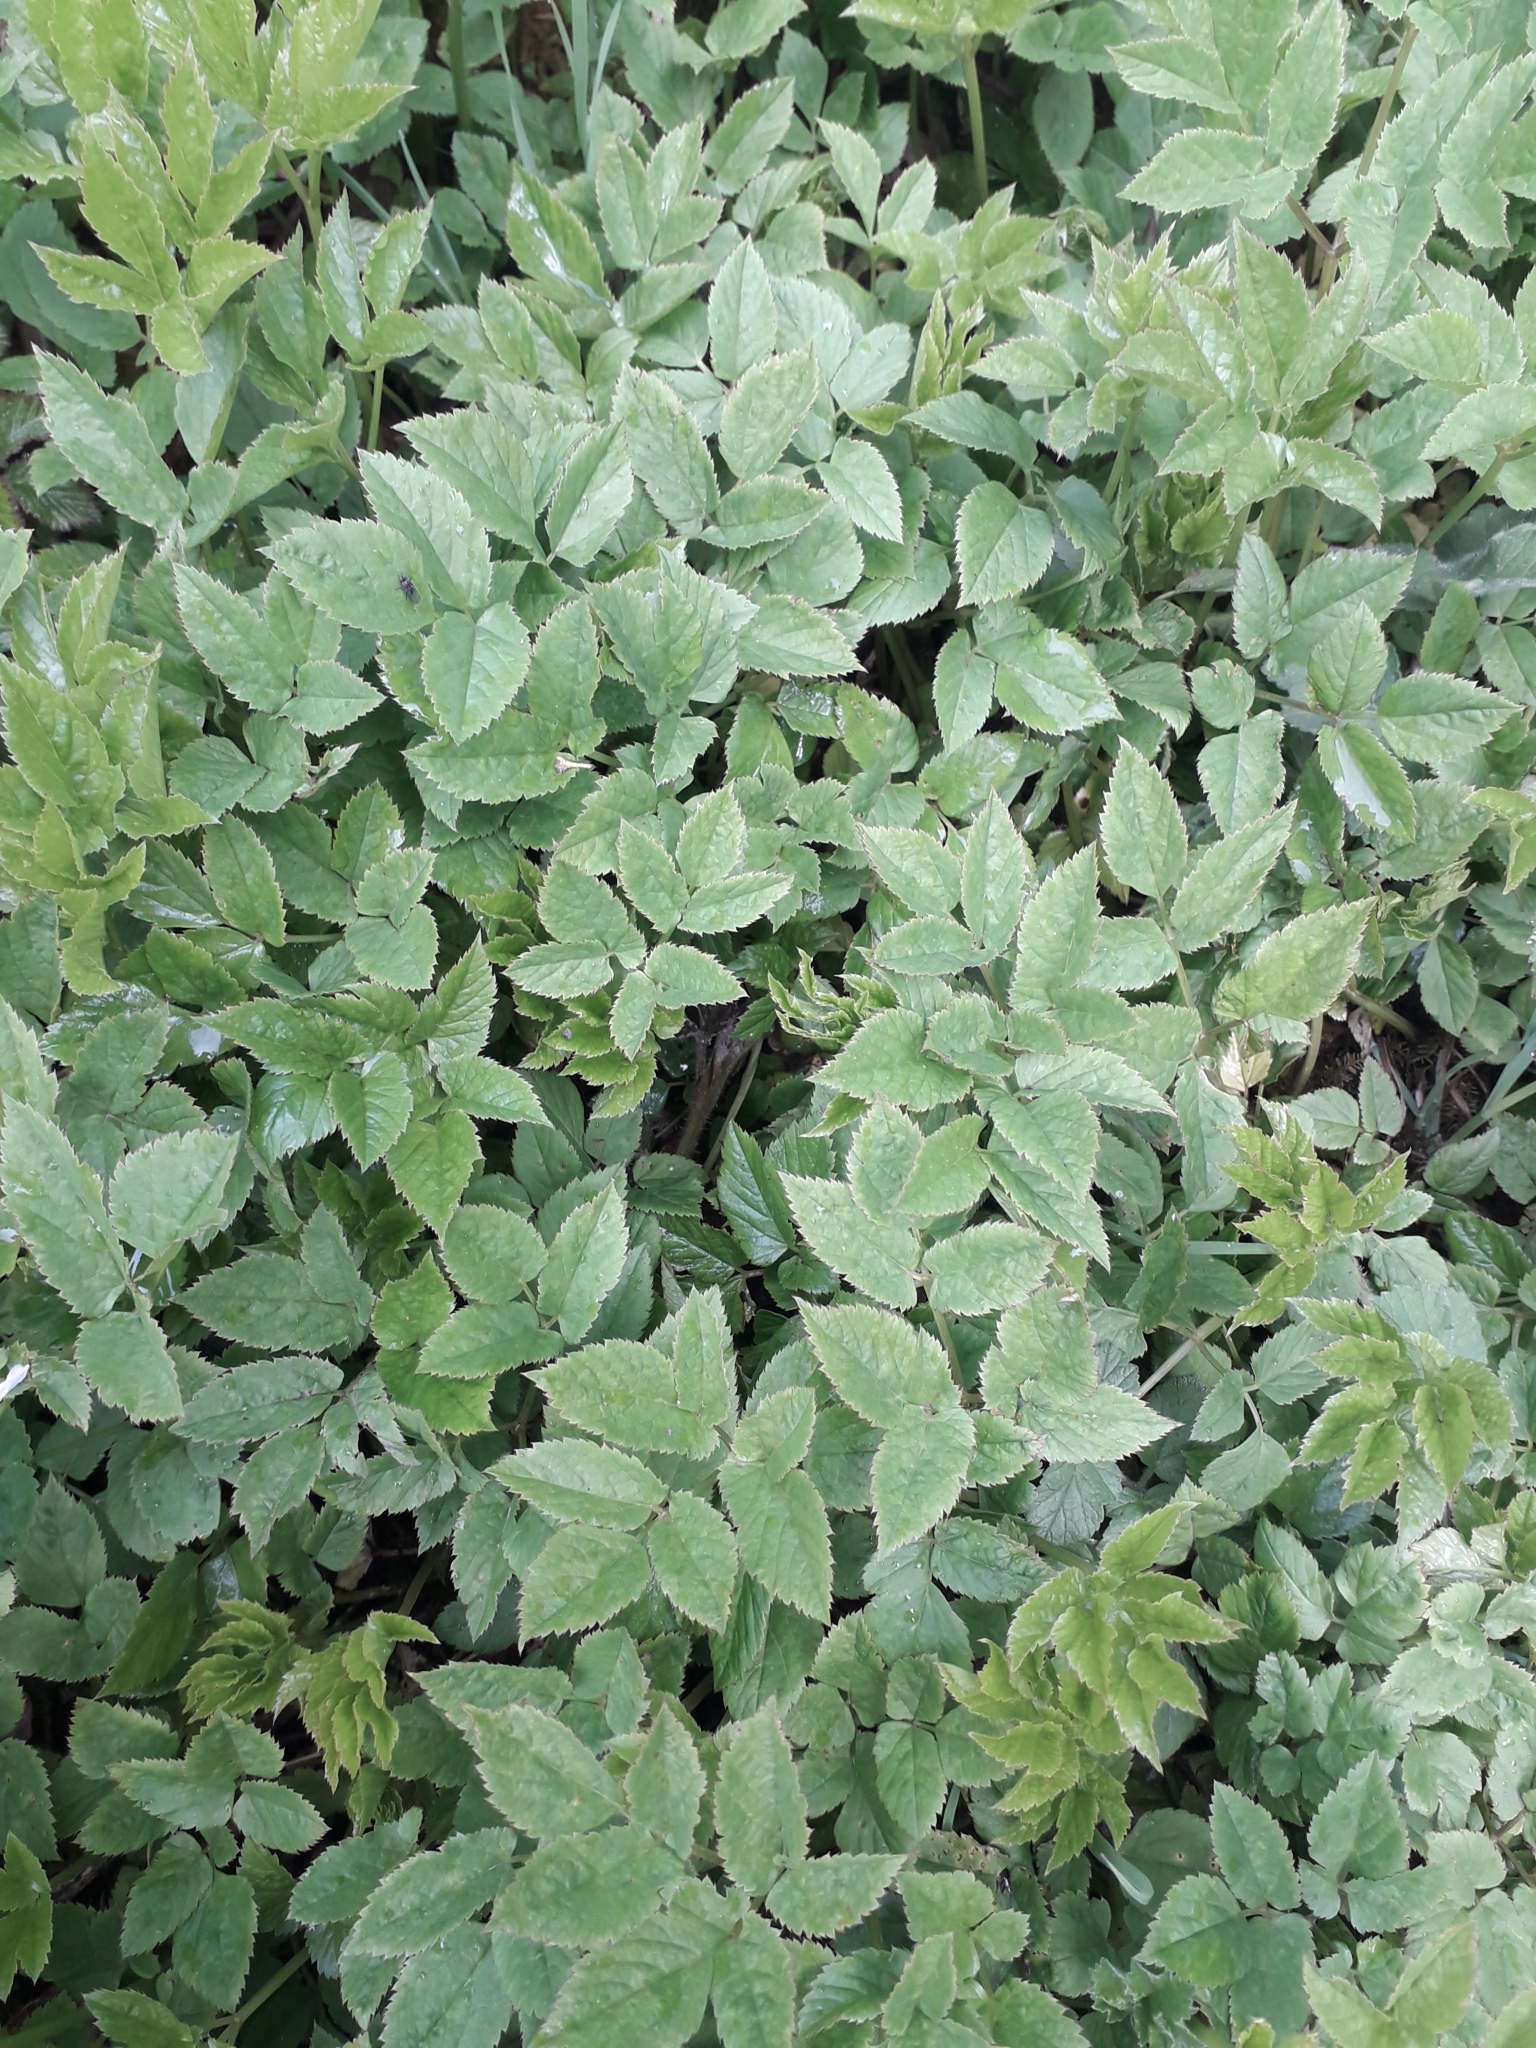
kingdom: Plantae
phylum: Tracheophyta
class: Magnoliopsida
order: Apiales
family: Apiaceae
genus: Aegopodium
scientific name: Aegopodium podagraria
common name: Ground-elder
